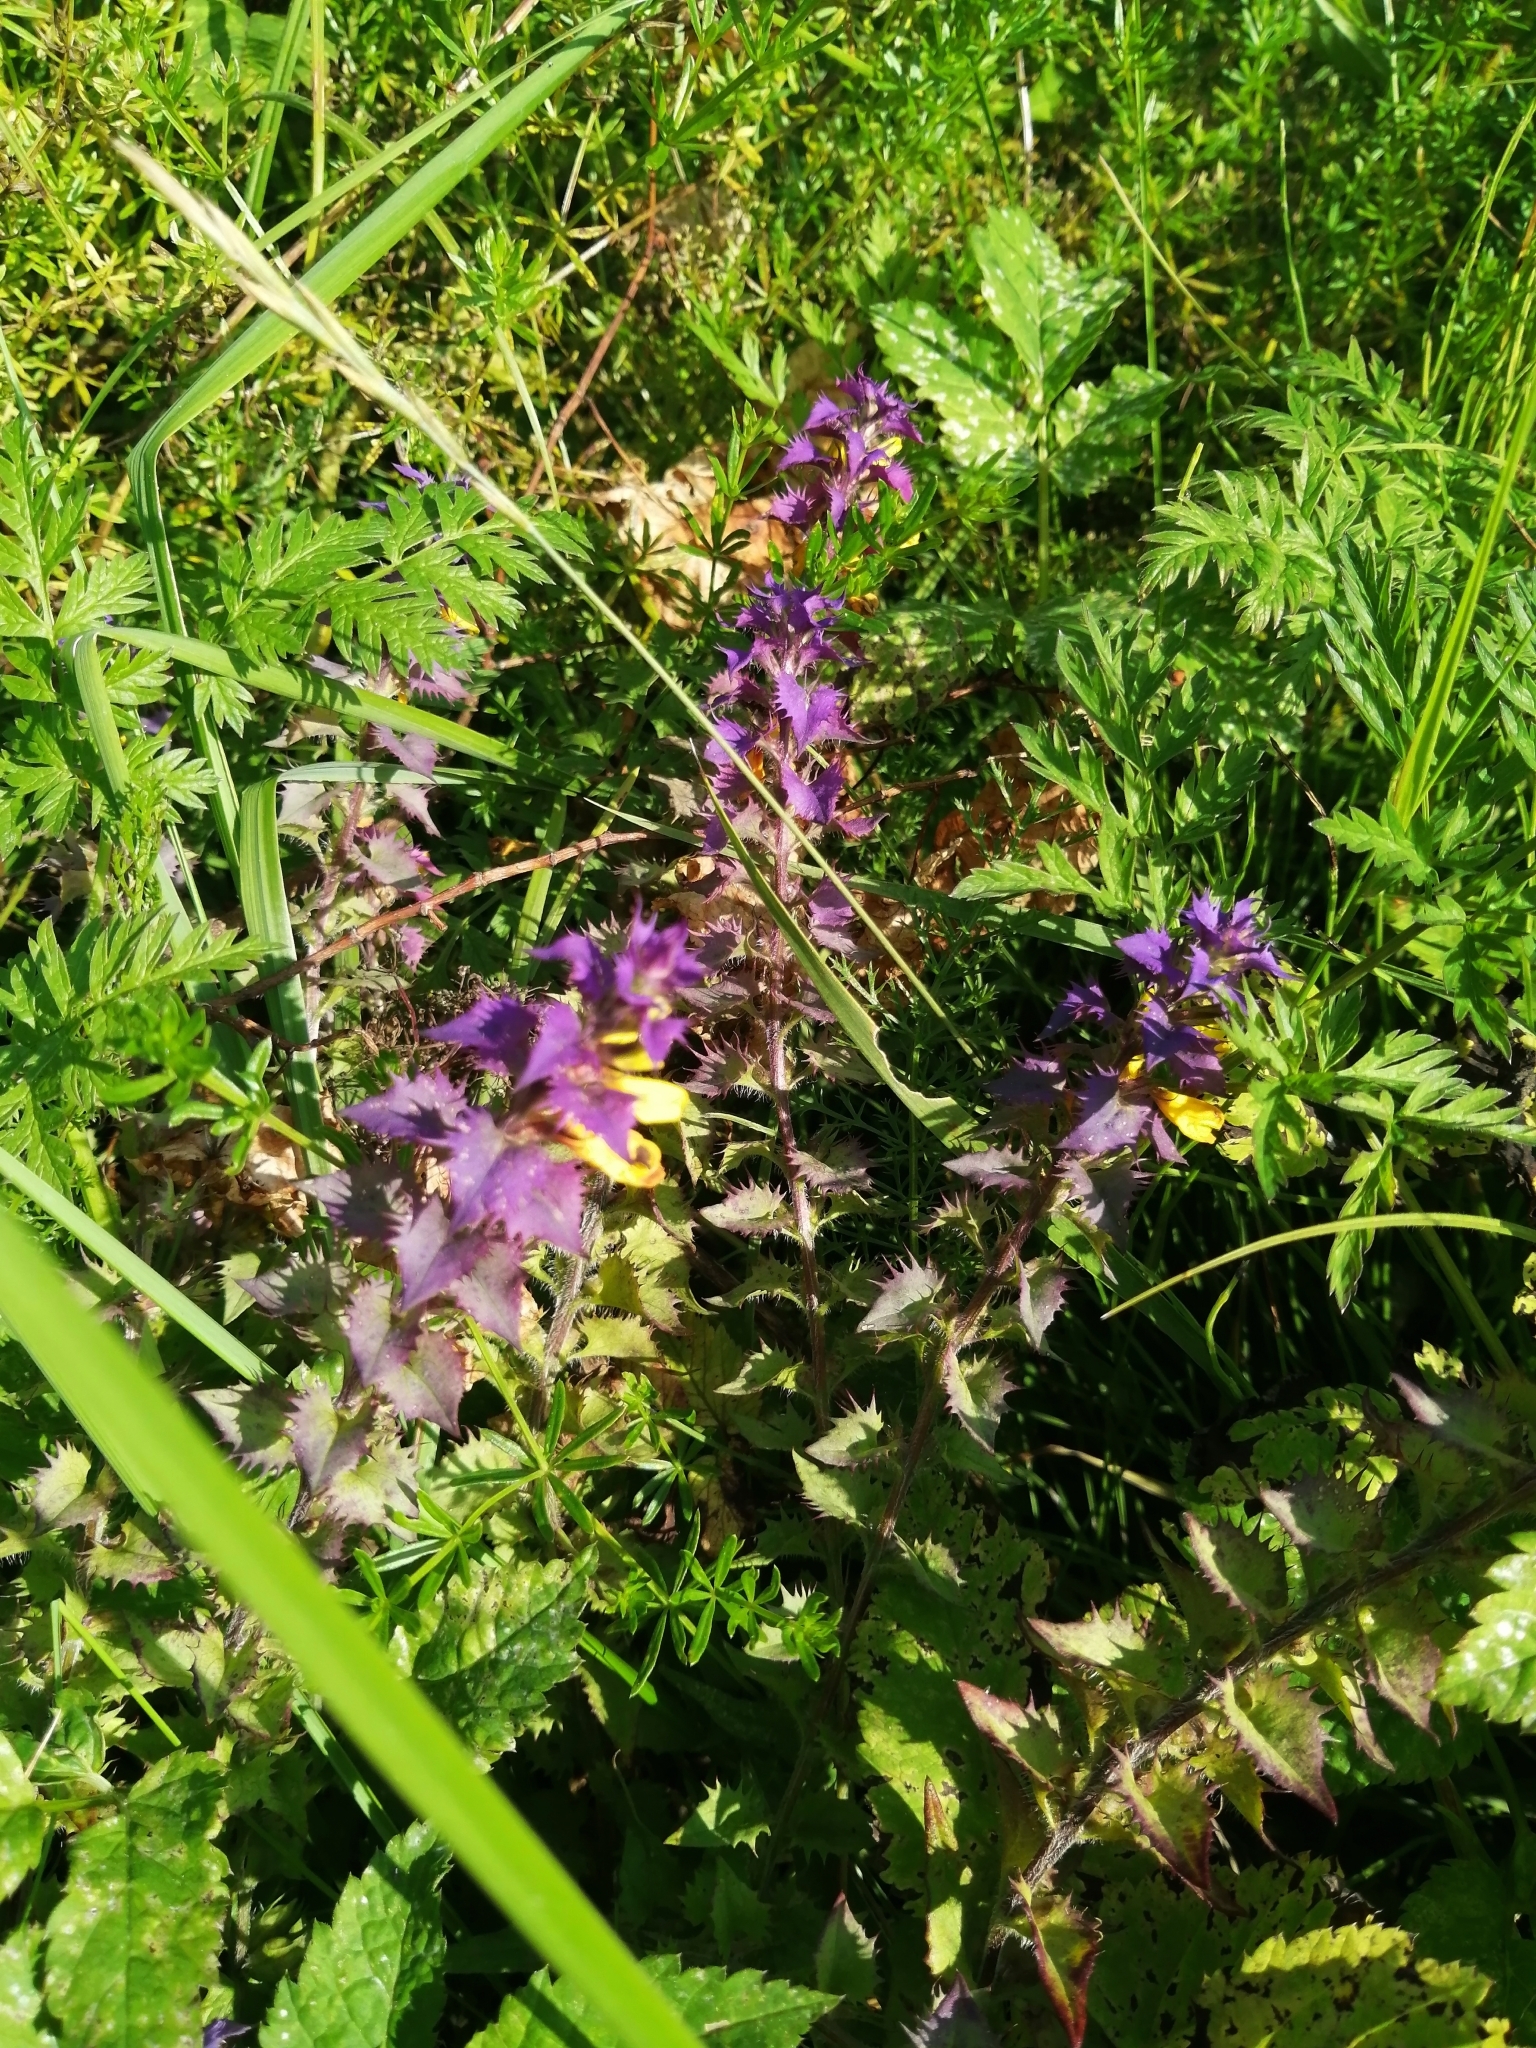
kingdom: Plantae
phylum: Tracheophyta
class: Magnoliopsida
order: Lamiales
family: Orobanchaceae
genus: Melampyrum
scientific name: Melampyrum nemorosum
